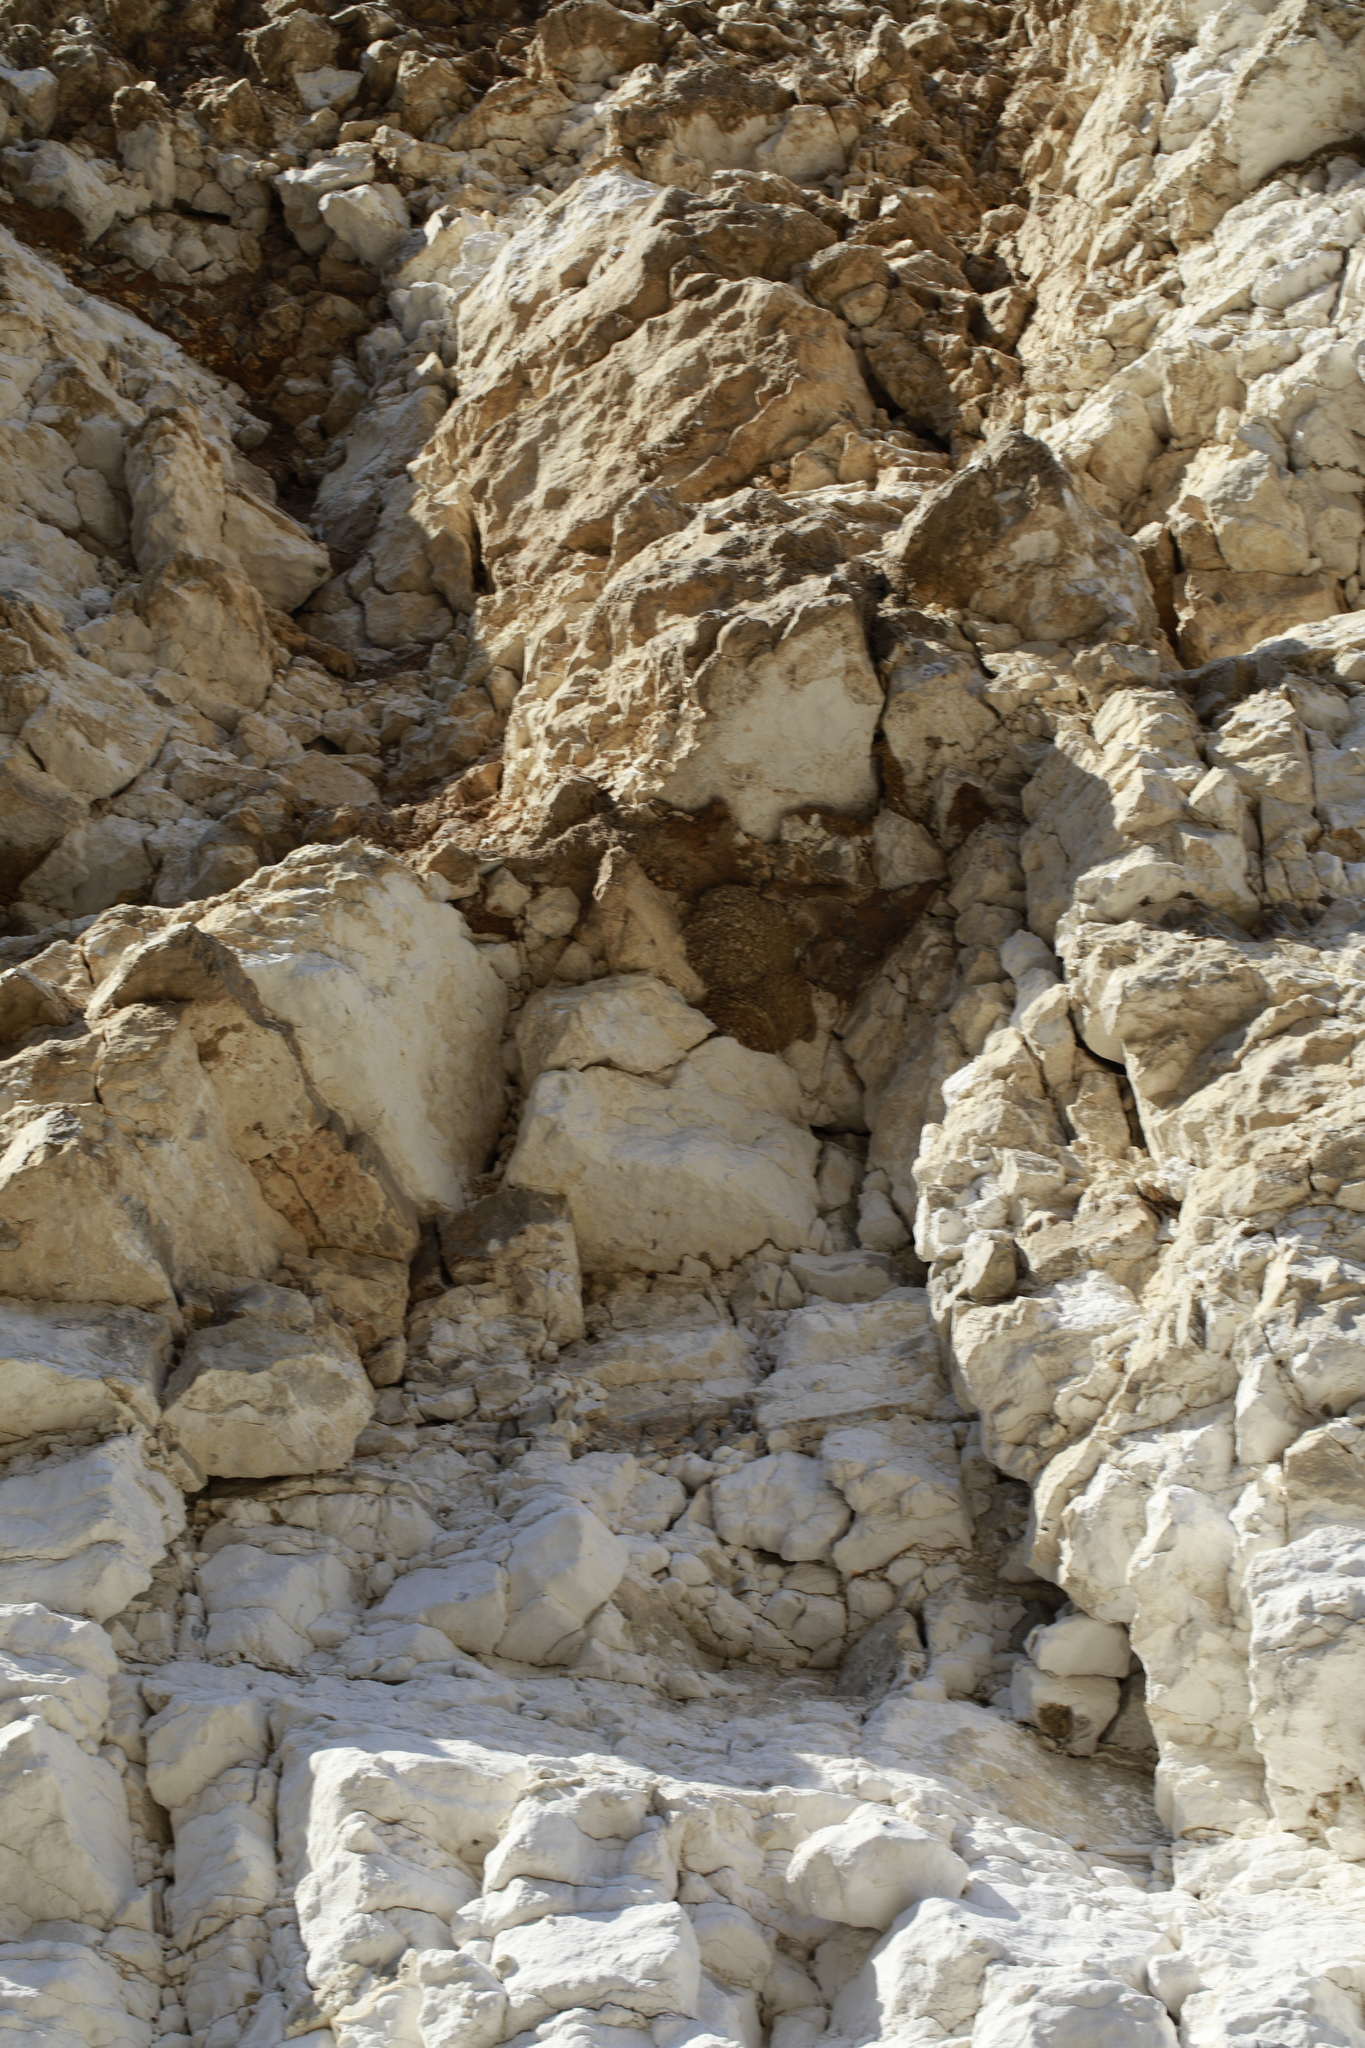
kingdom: Animalia
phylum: Chordata
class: Aves
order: Passeriformes
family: Hirundinidae
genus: Delichon
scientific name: Delichon urbicum
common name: Common house martin
